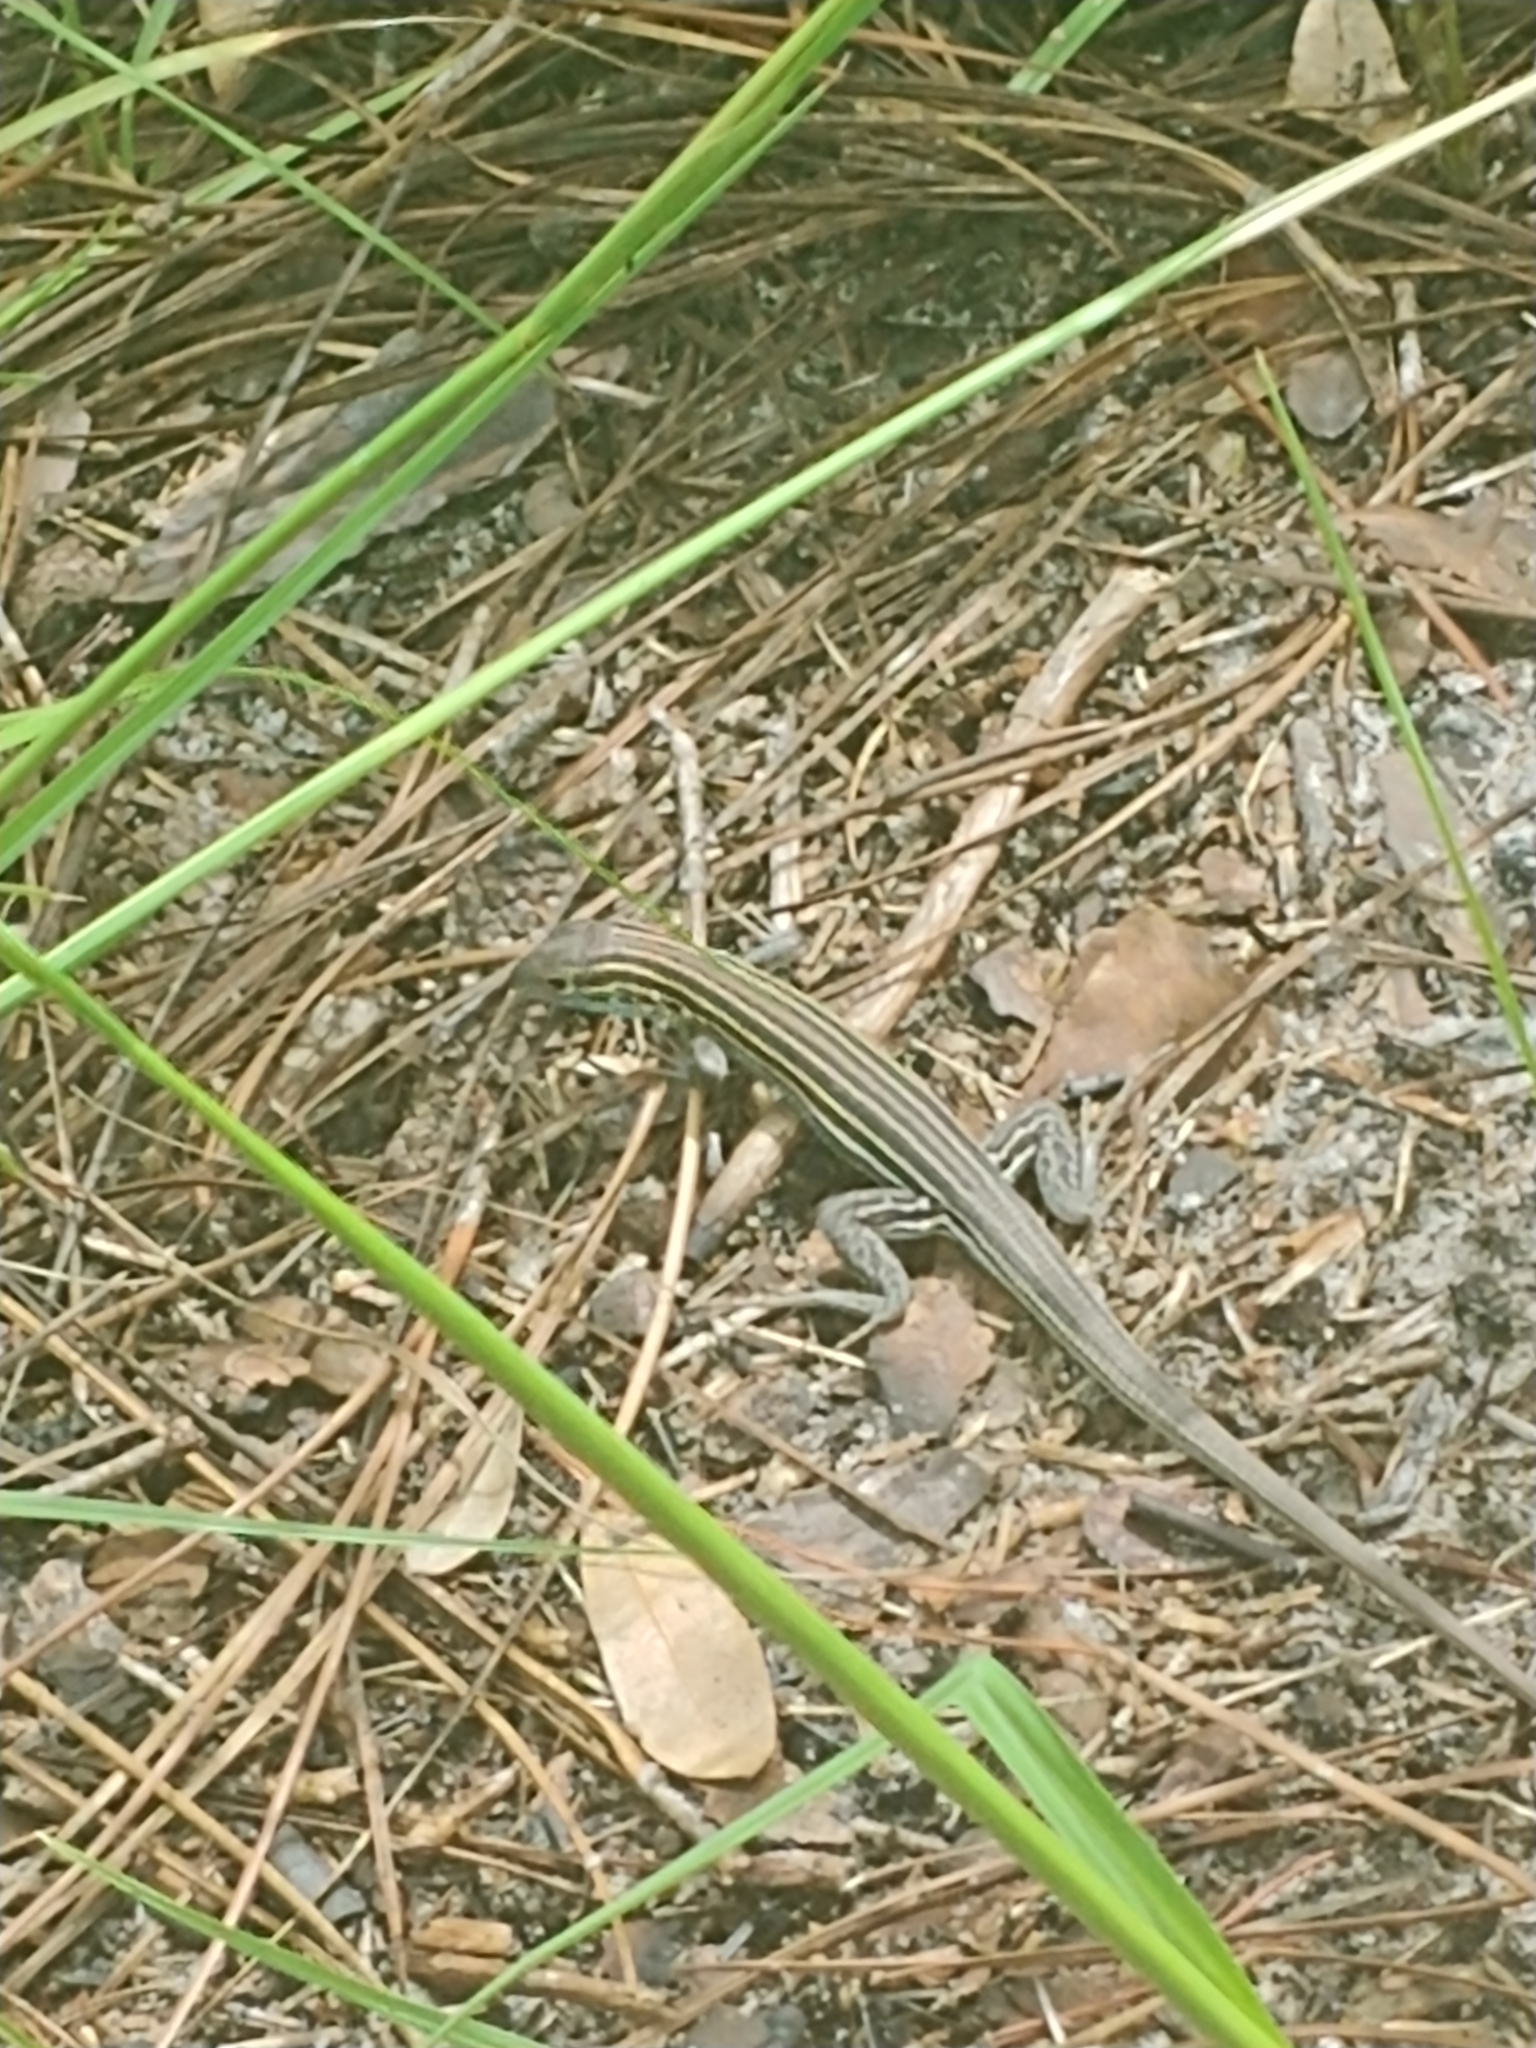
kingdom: Animalia
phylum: Chordata
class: Squamata
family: Teiidae
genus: Aspidoscelis
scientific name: Aspidoscelis sexlineatus
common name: Six-lined racerunner
